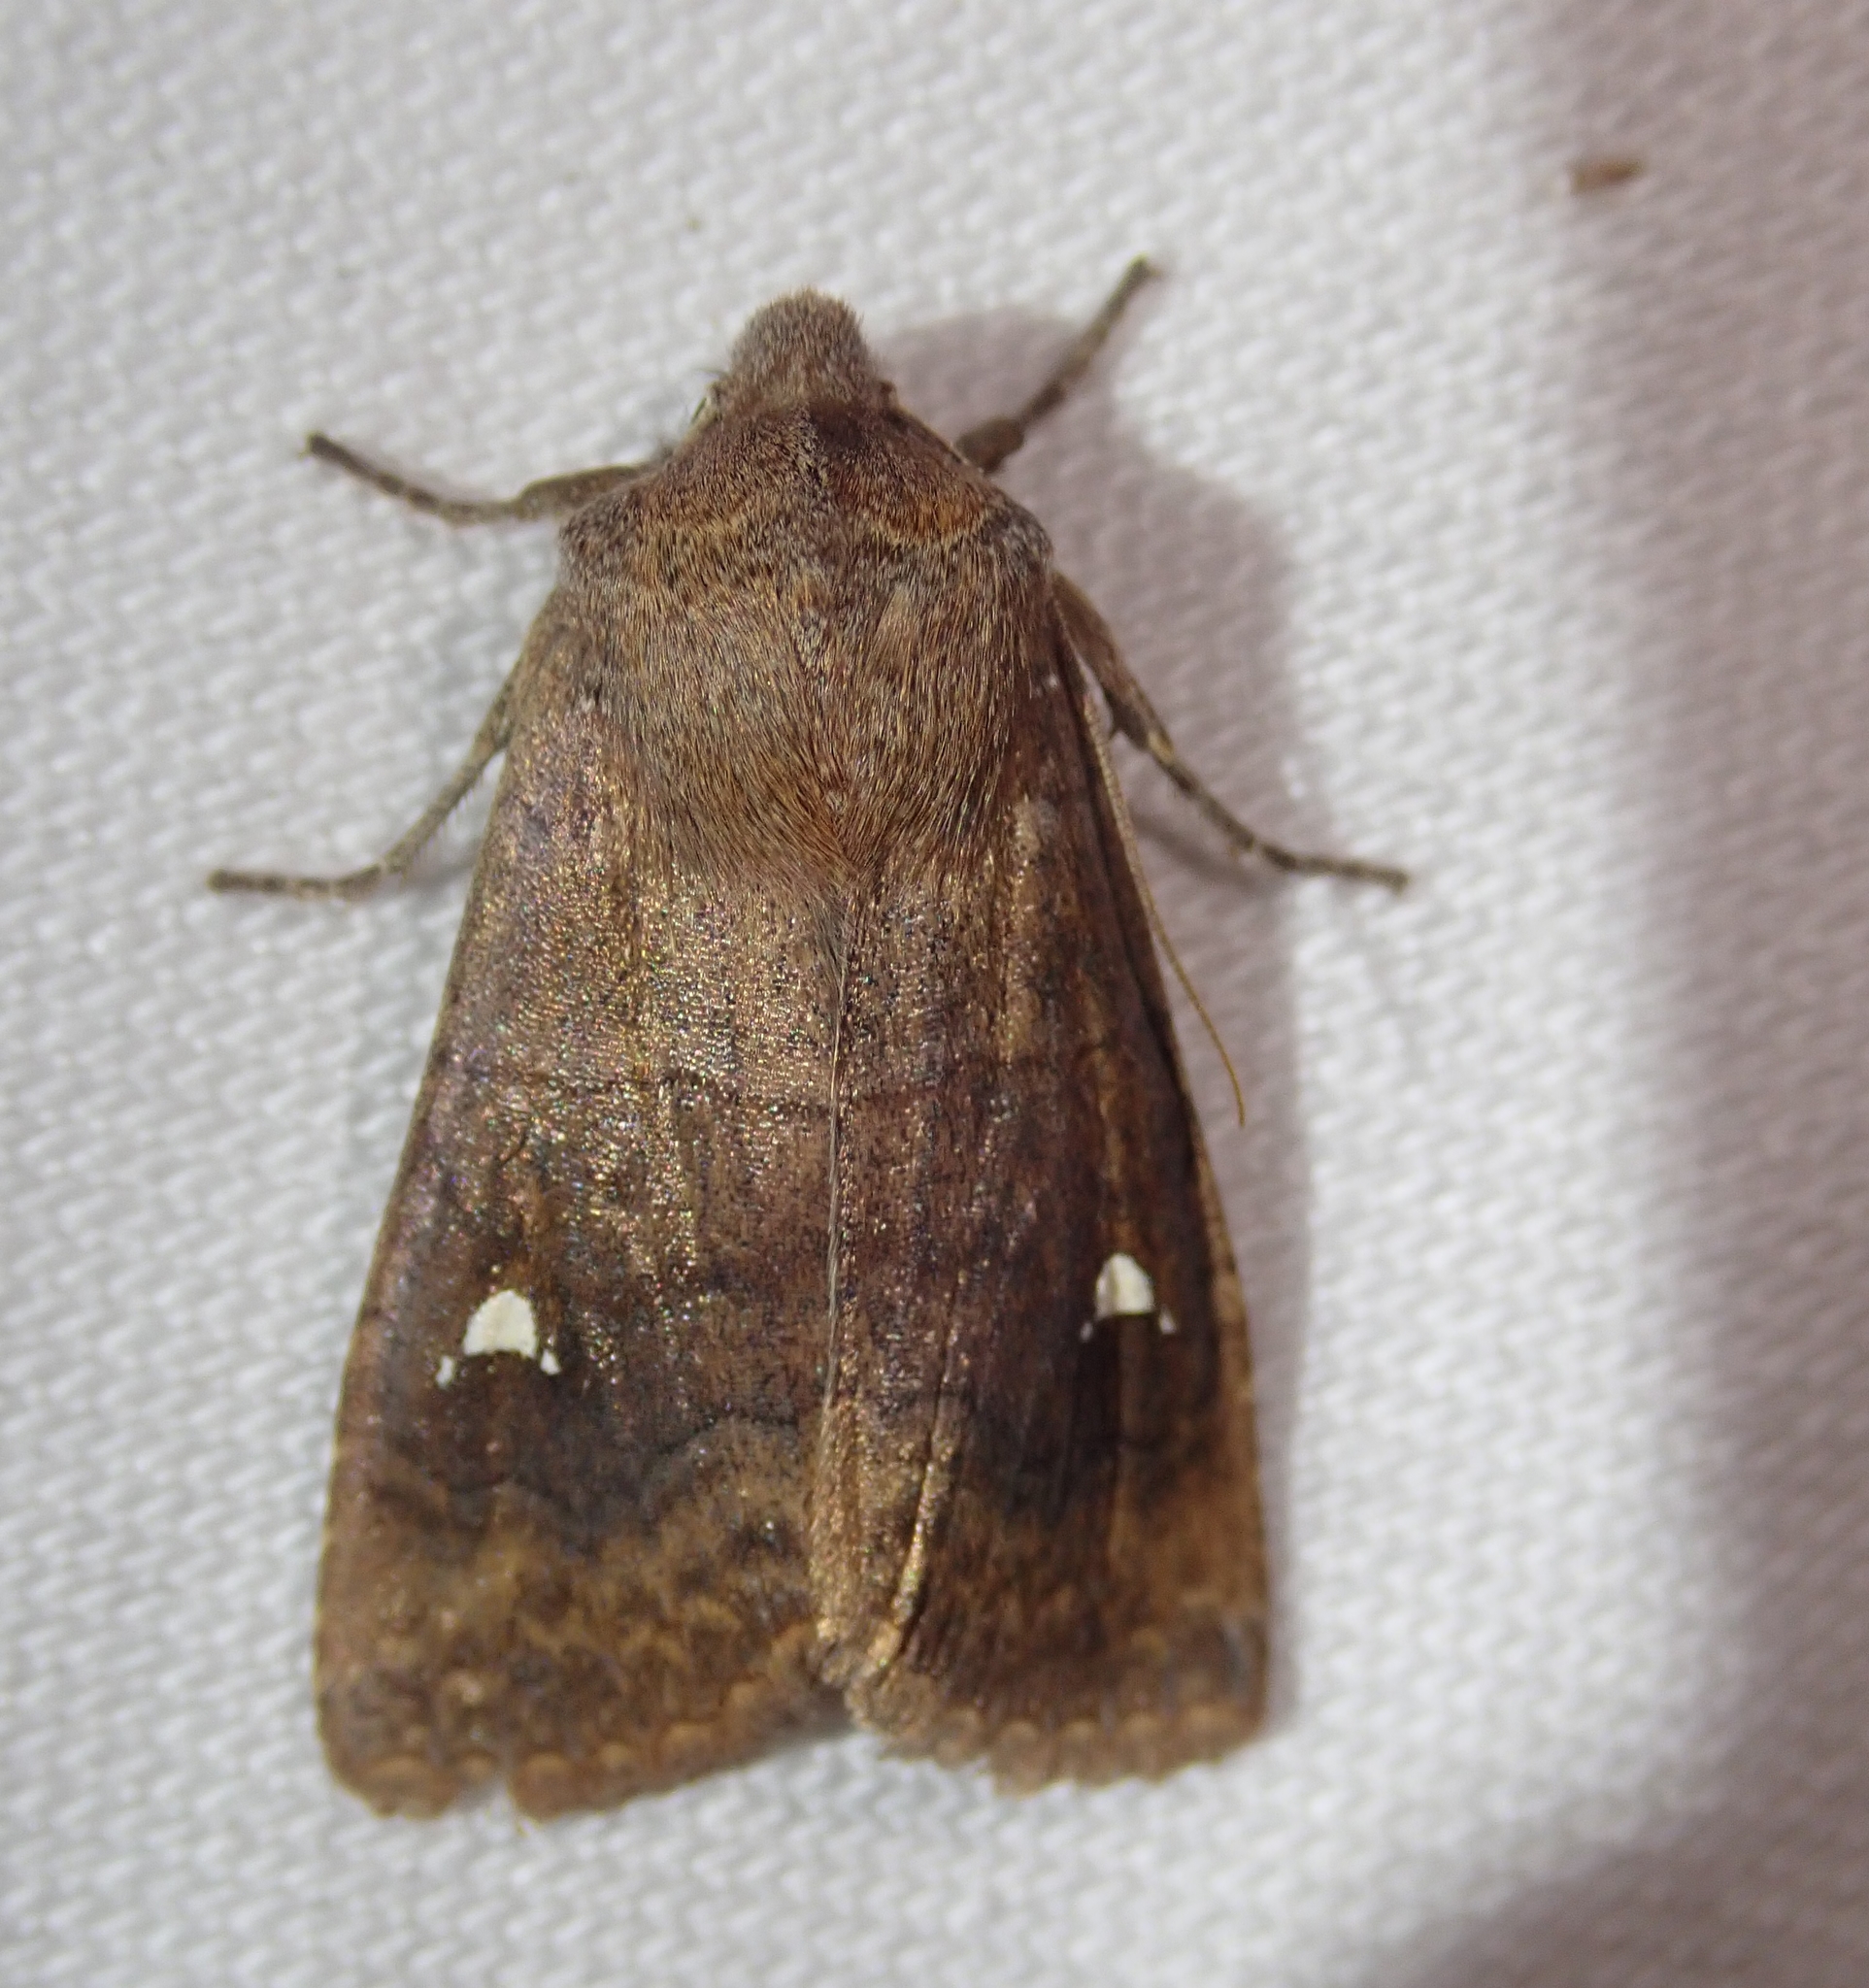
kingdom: Animalia
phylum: Arthropoda
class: Insecta
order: Lepidoptera
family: Noctuidae
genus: Eupsilia
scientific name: Eupsilia transversa
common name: Satellite
